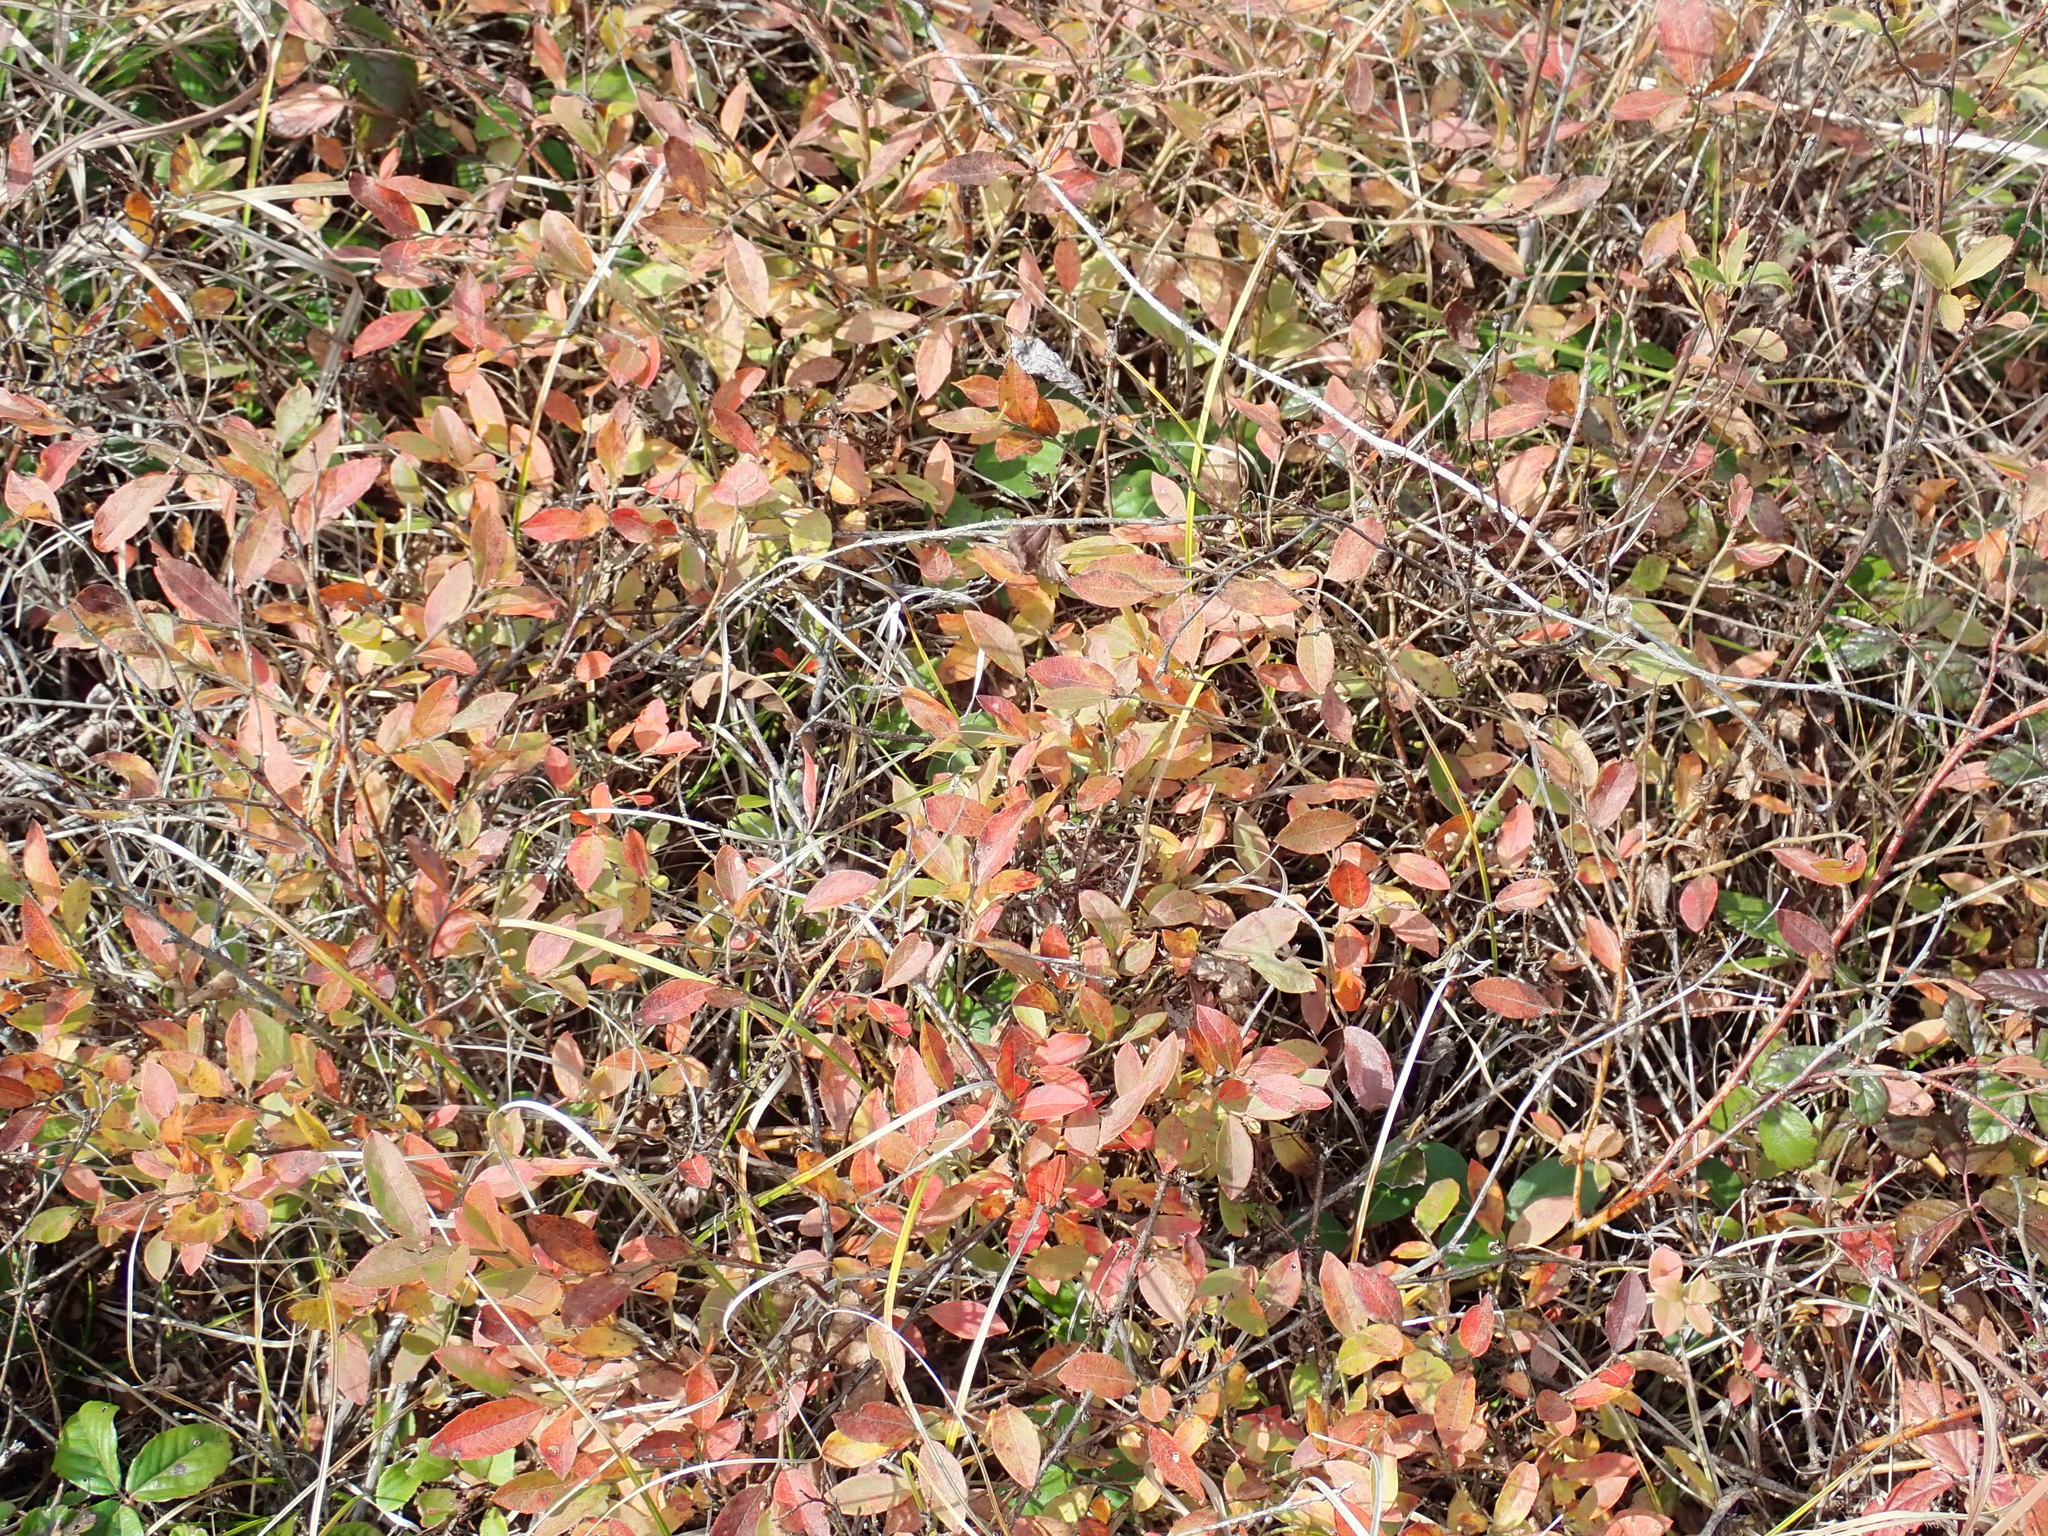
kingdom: Plantae
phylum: Tracheophyta
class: Magnoliopsida
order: Ericales
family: Ericaceae
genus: Vaccinium
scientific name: Vaccinium angustifolium
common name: Early lowbush blueberry
